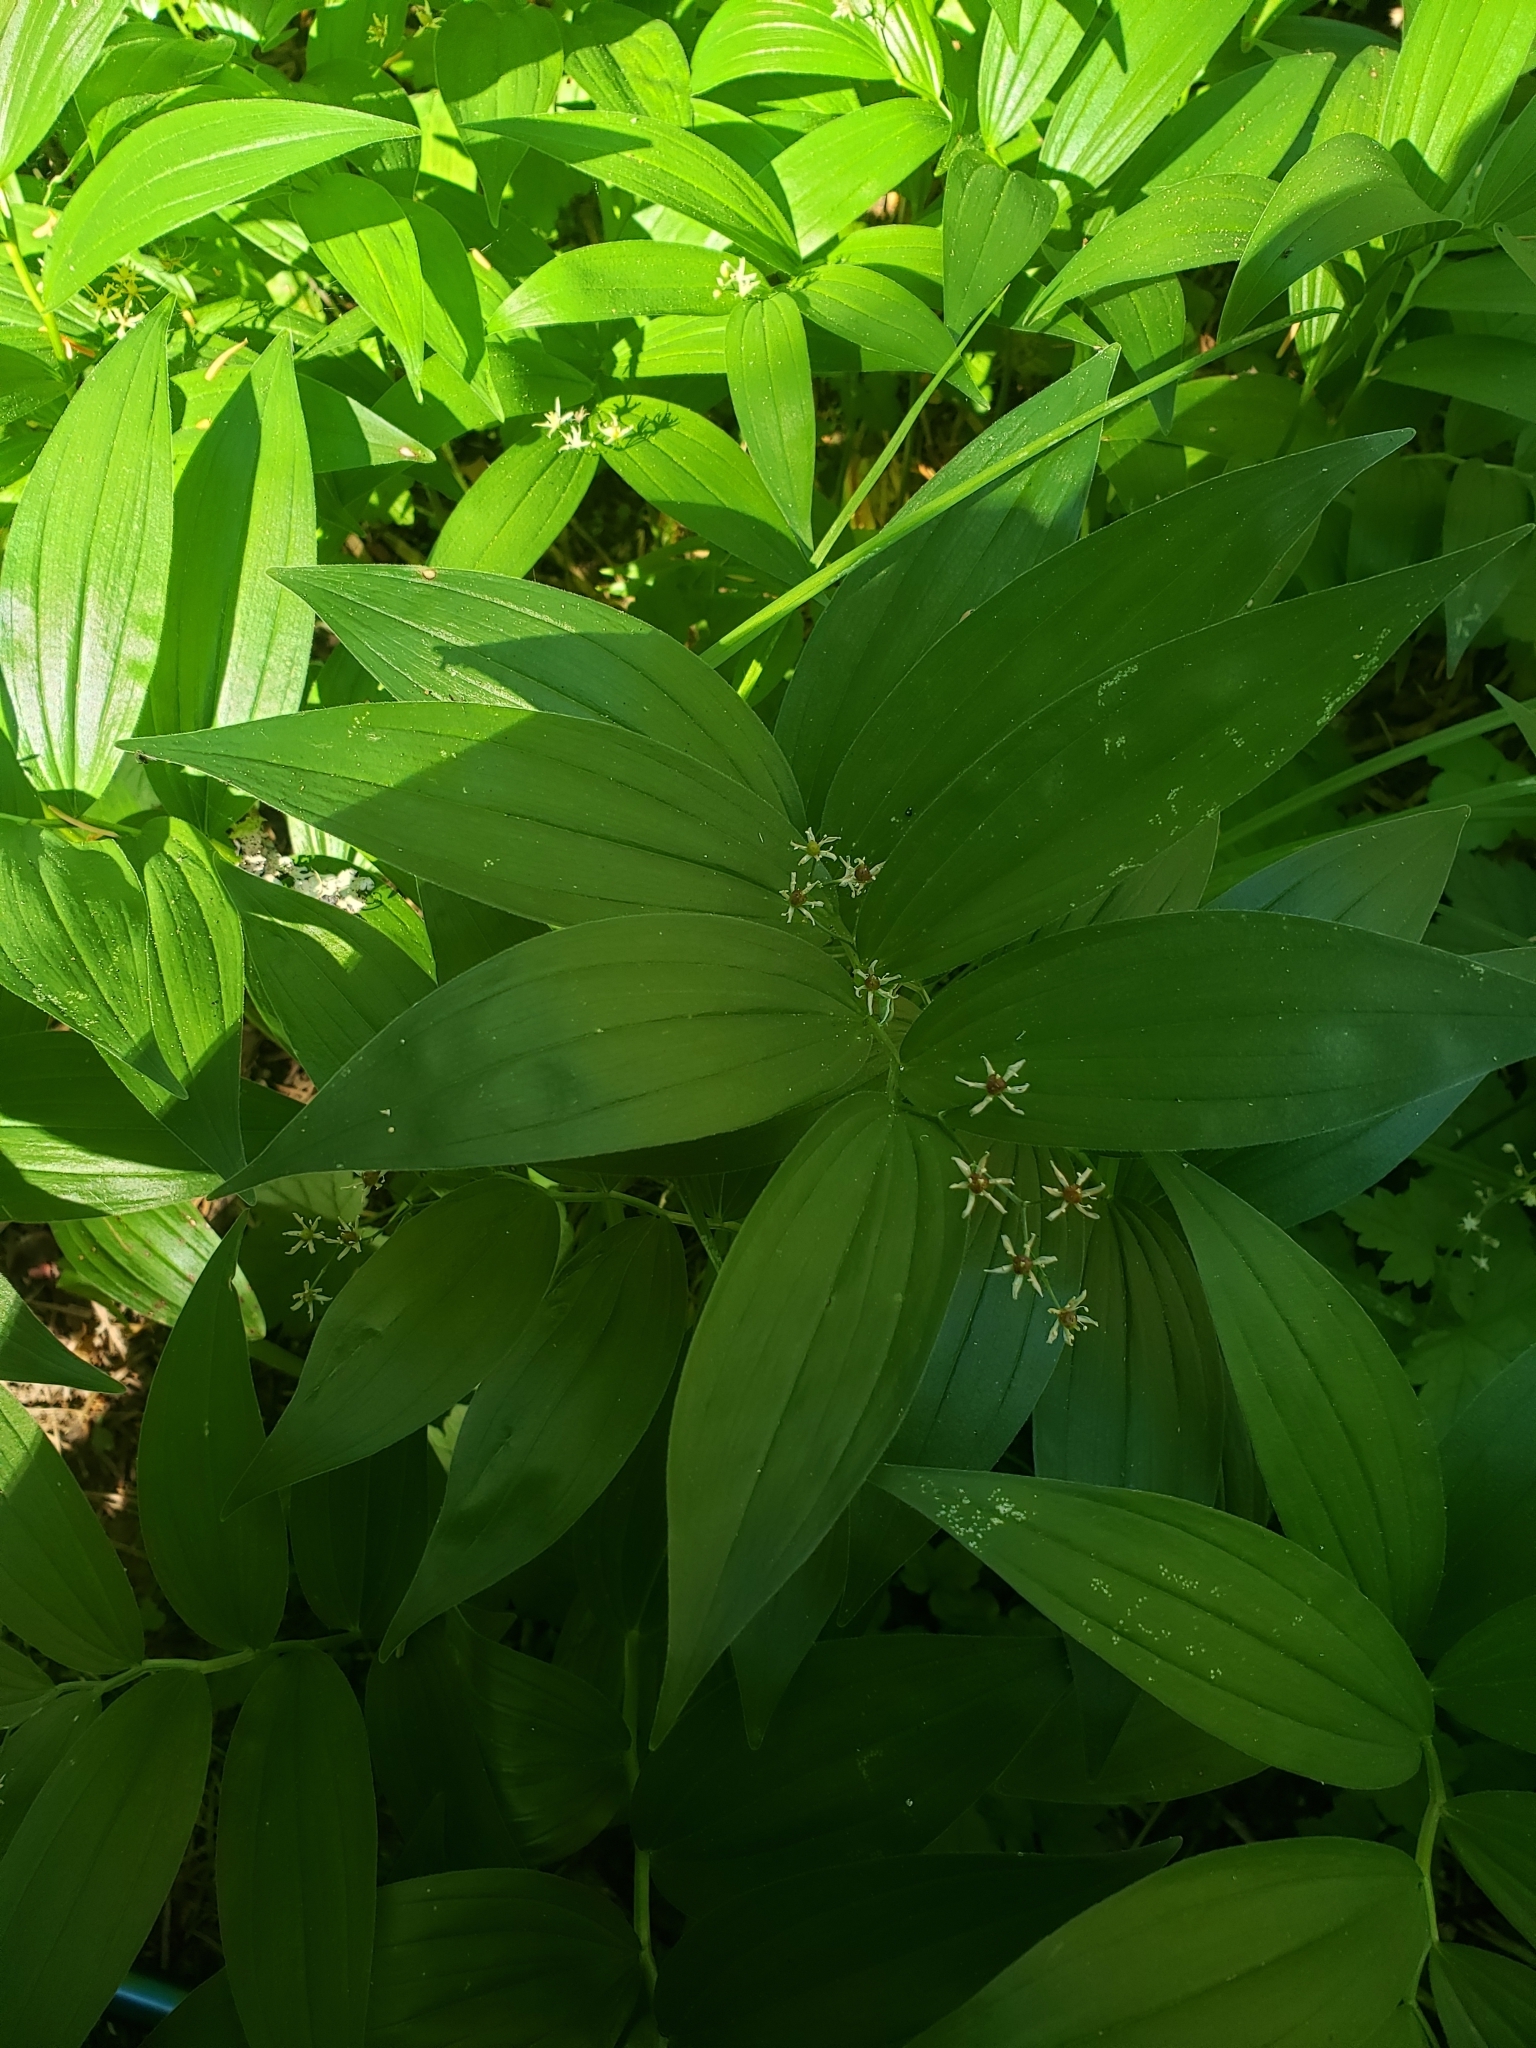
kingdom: Plantae
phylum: Tracheophyta
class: Liliopsida
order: Asparagales
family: Asparagaceae
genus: Maianthemum
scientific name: Maianthemum stellatum
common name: Little false solomon's seal
